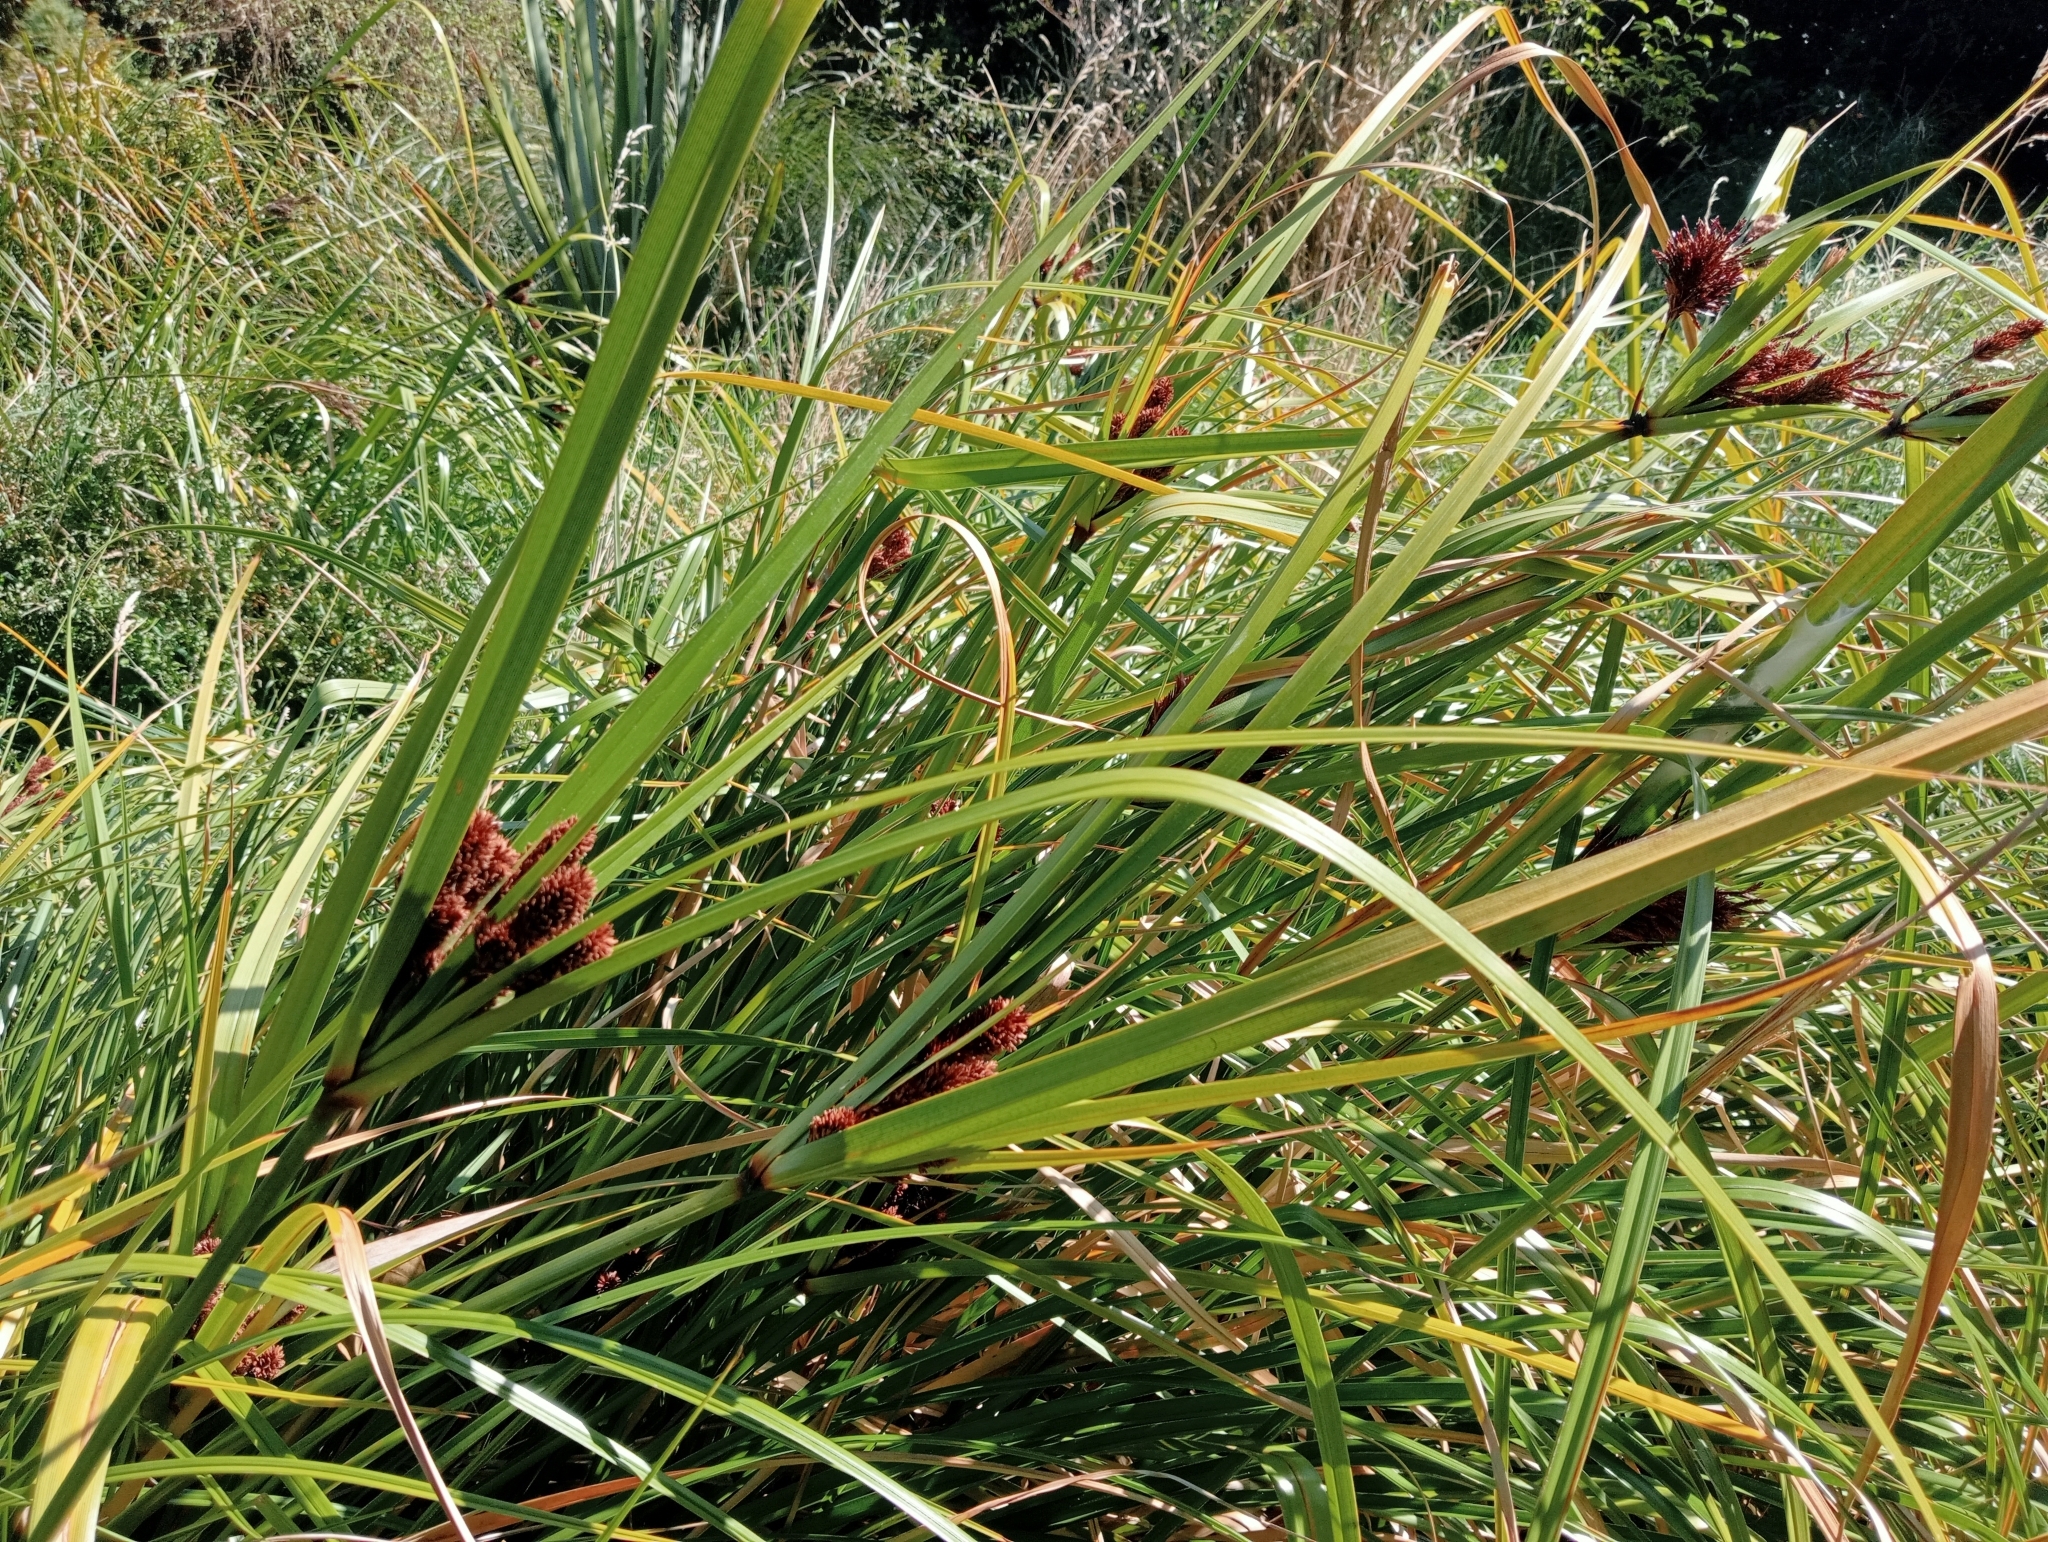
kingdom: Plantae
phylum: Tracheophyta
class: Liliopsida
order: Poales
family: Cyperaceae
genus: Cyperus
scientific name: Cyperus ustulatus
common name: Giant umbrella-sedge
